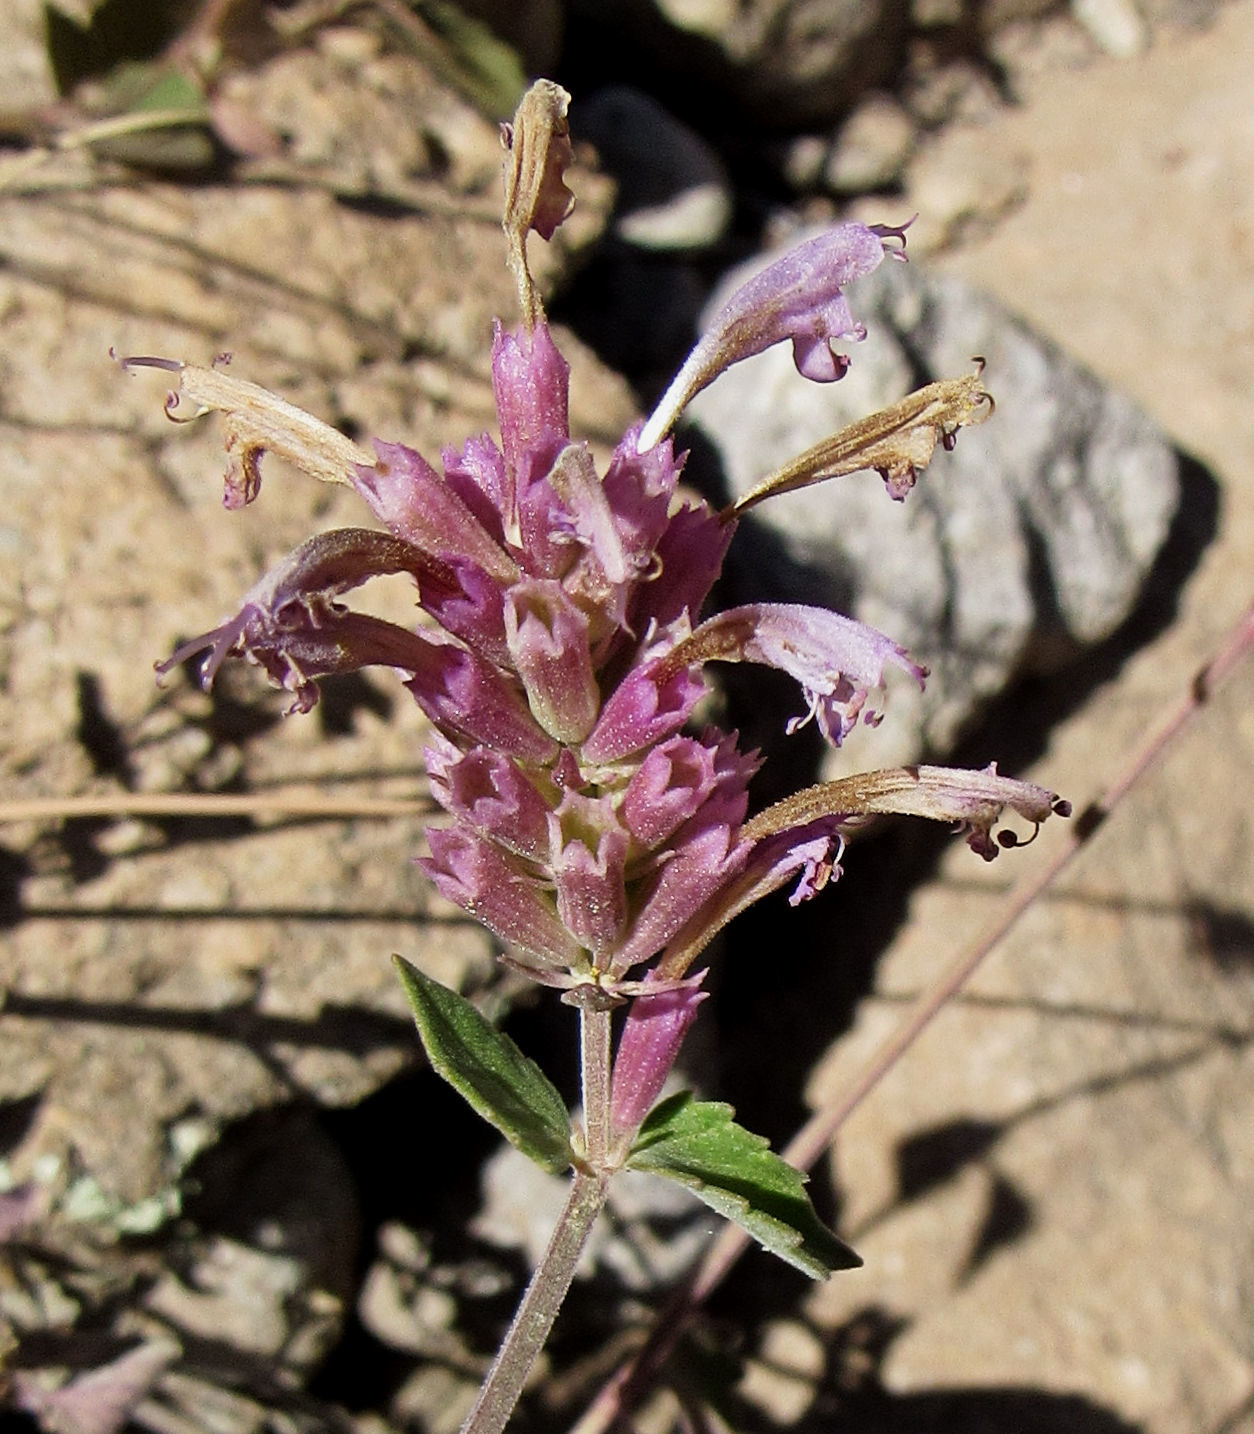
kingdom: Plantae
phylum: Tracheophyta
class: Magnoliopsida
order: Lamiales
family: Lamiaceae
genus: Agastache
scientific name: Agastache pallidiflora
